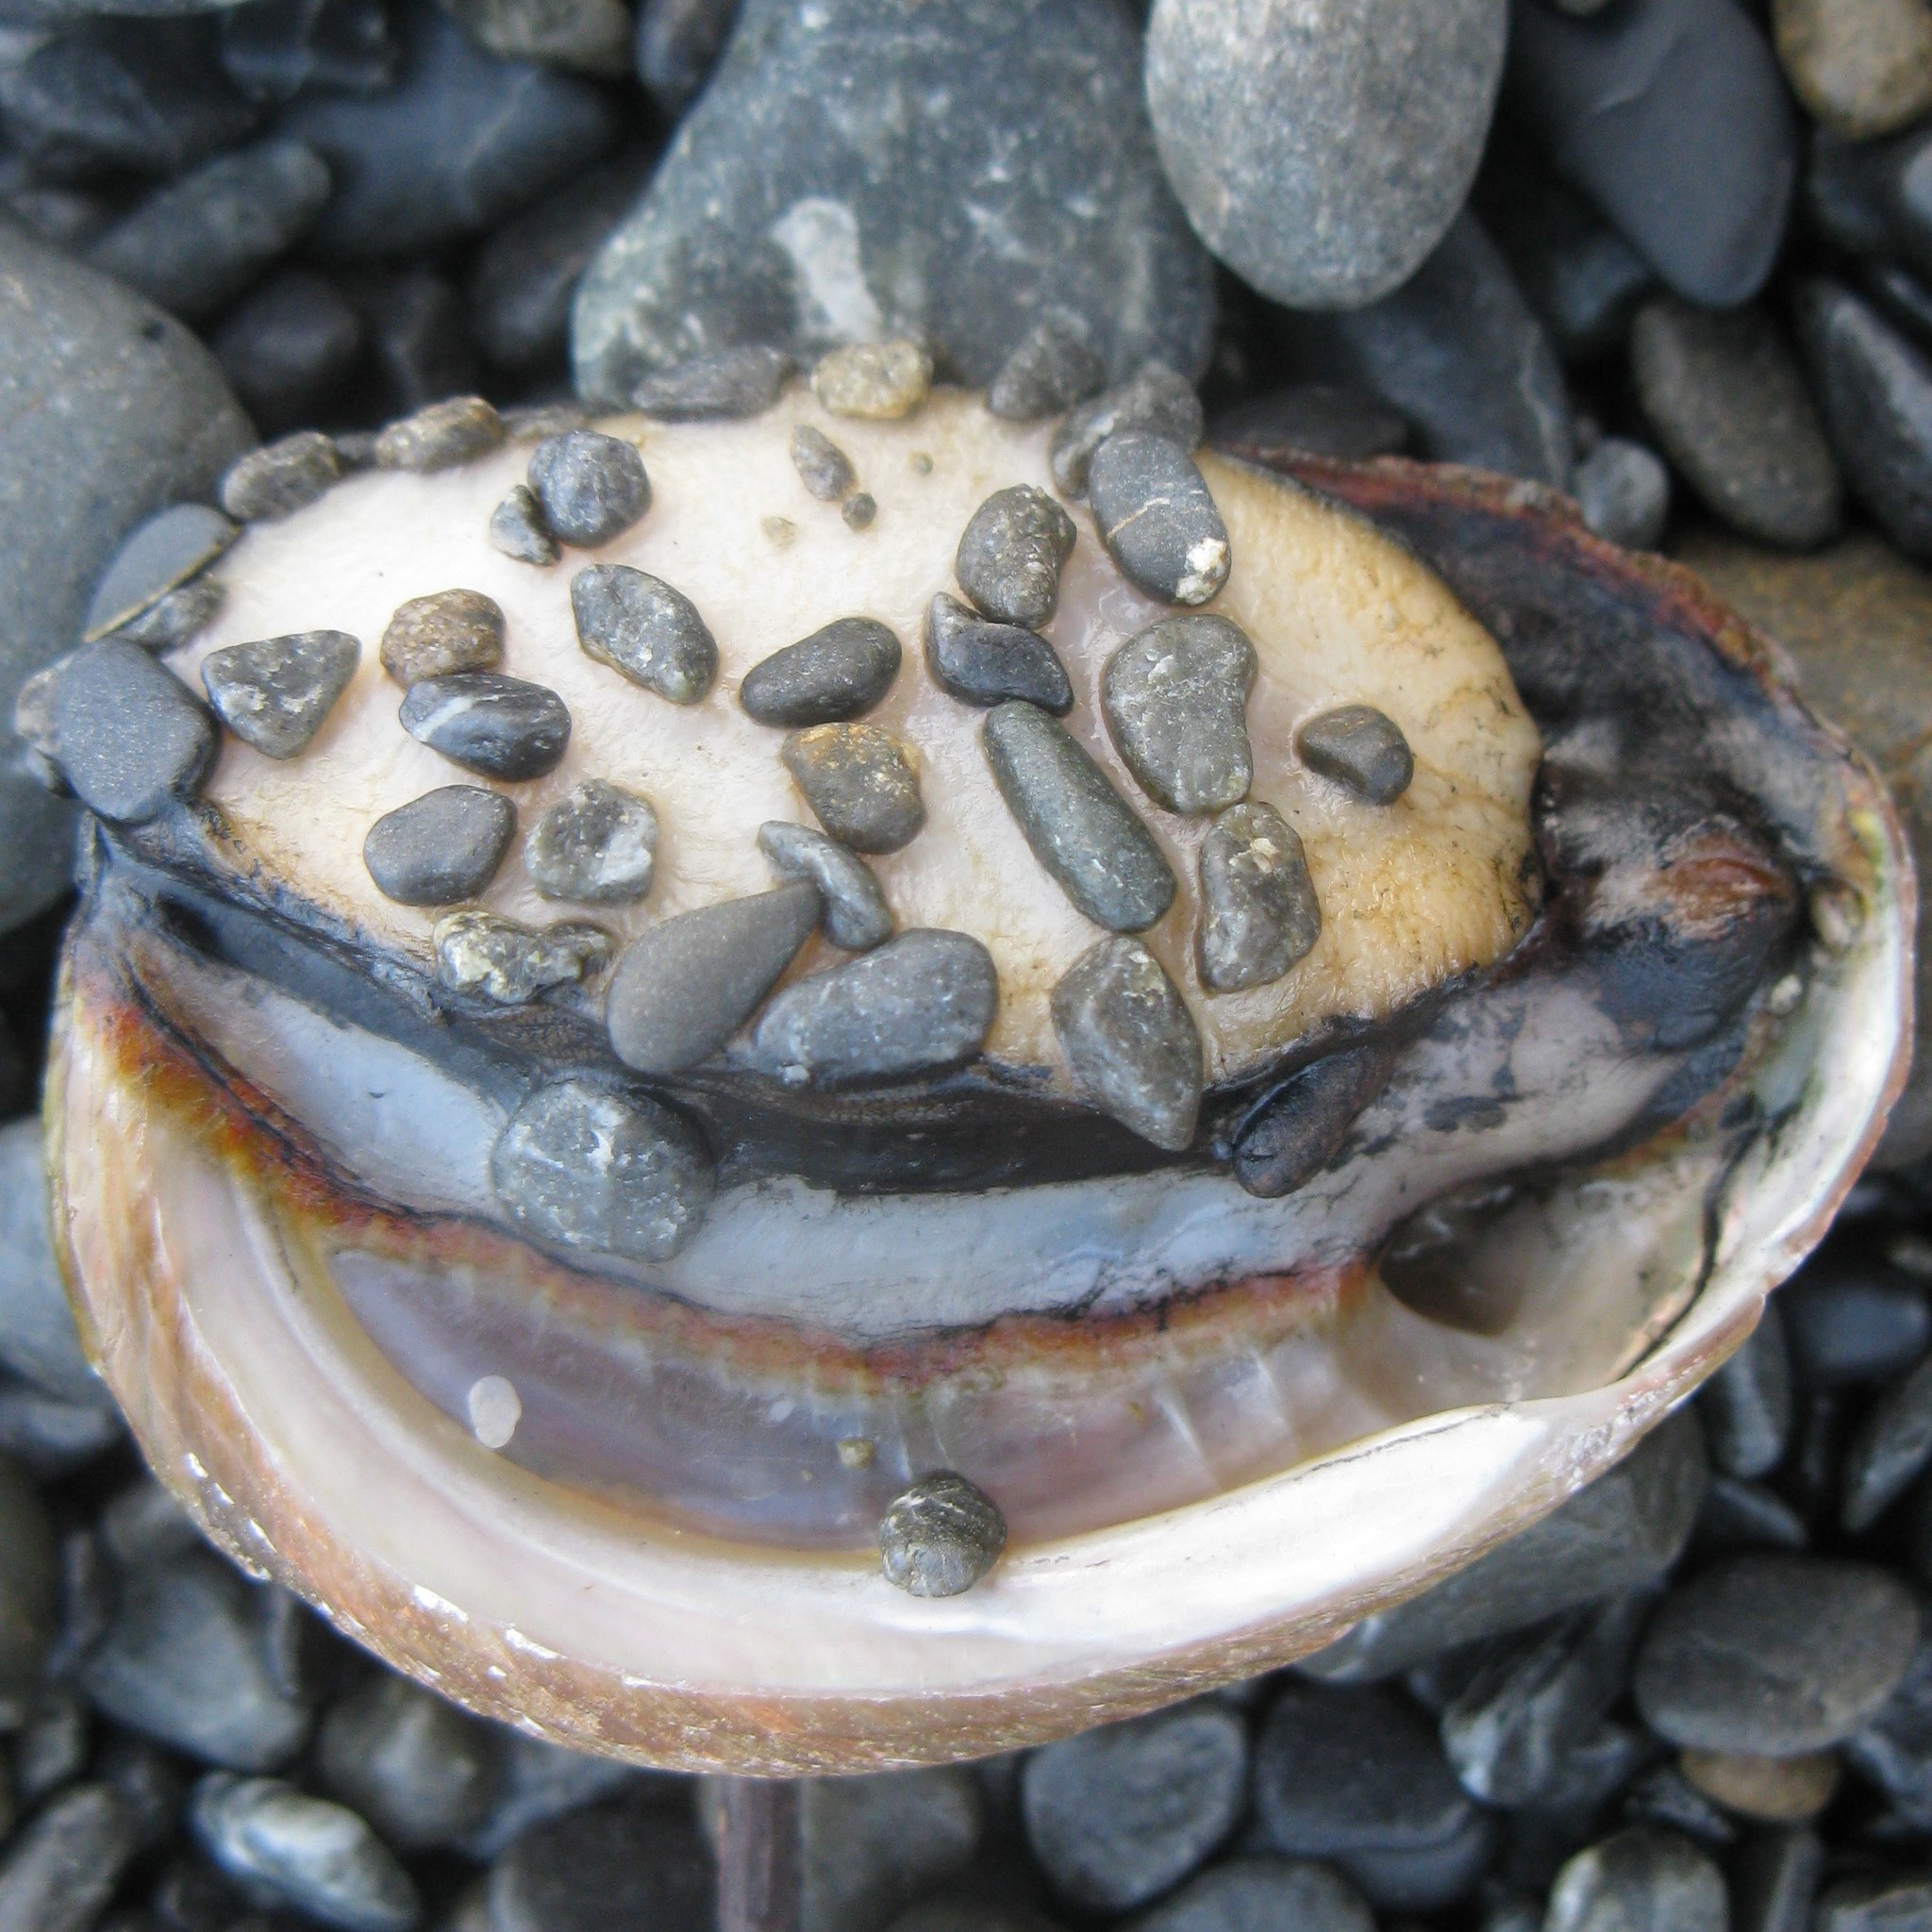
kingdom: Animalia
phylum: Mollusca
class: Gastropoda
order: Lepetellida
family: Haliotidae
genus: Haliotis
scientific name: Haliotis australis
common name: Silver abalone
